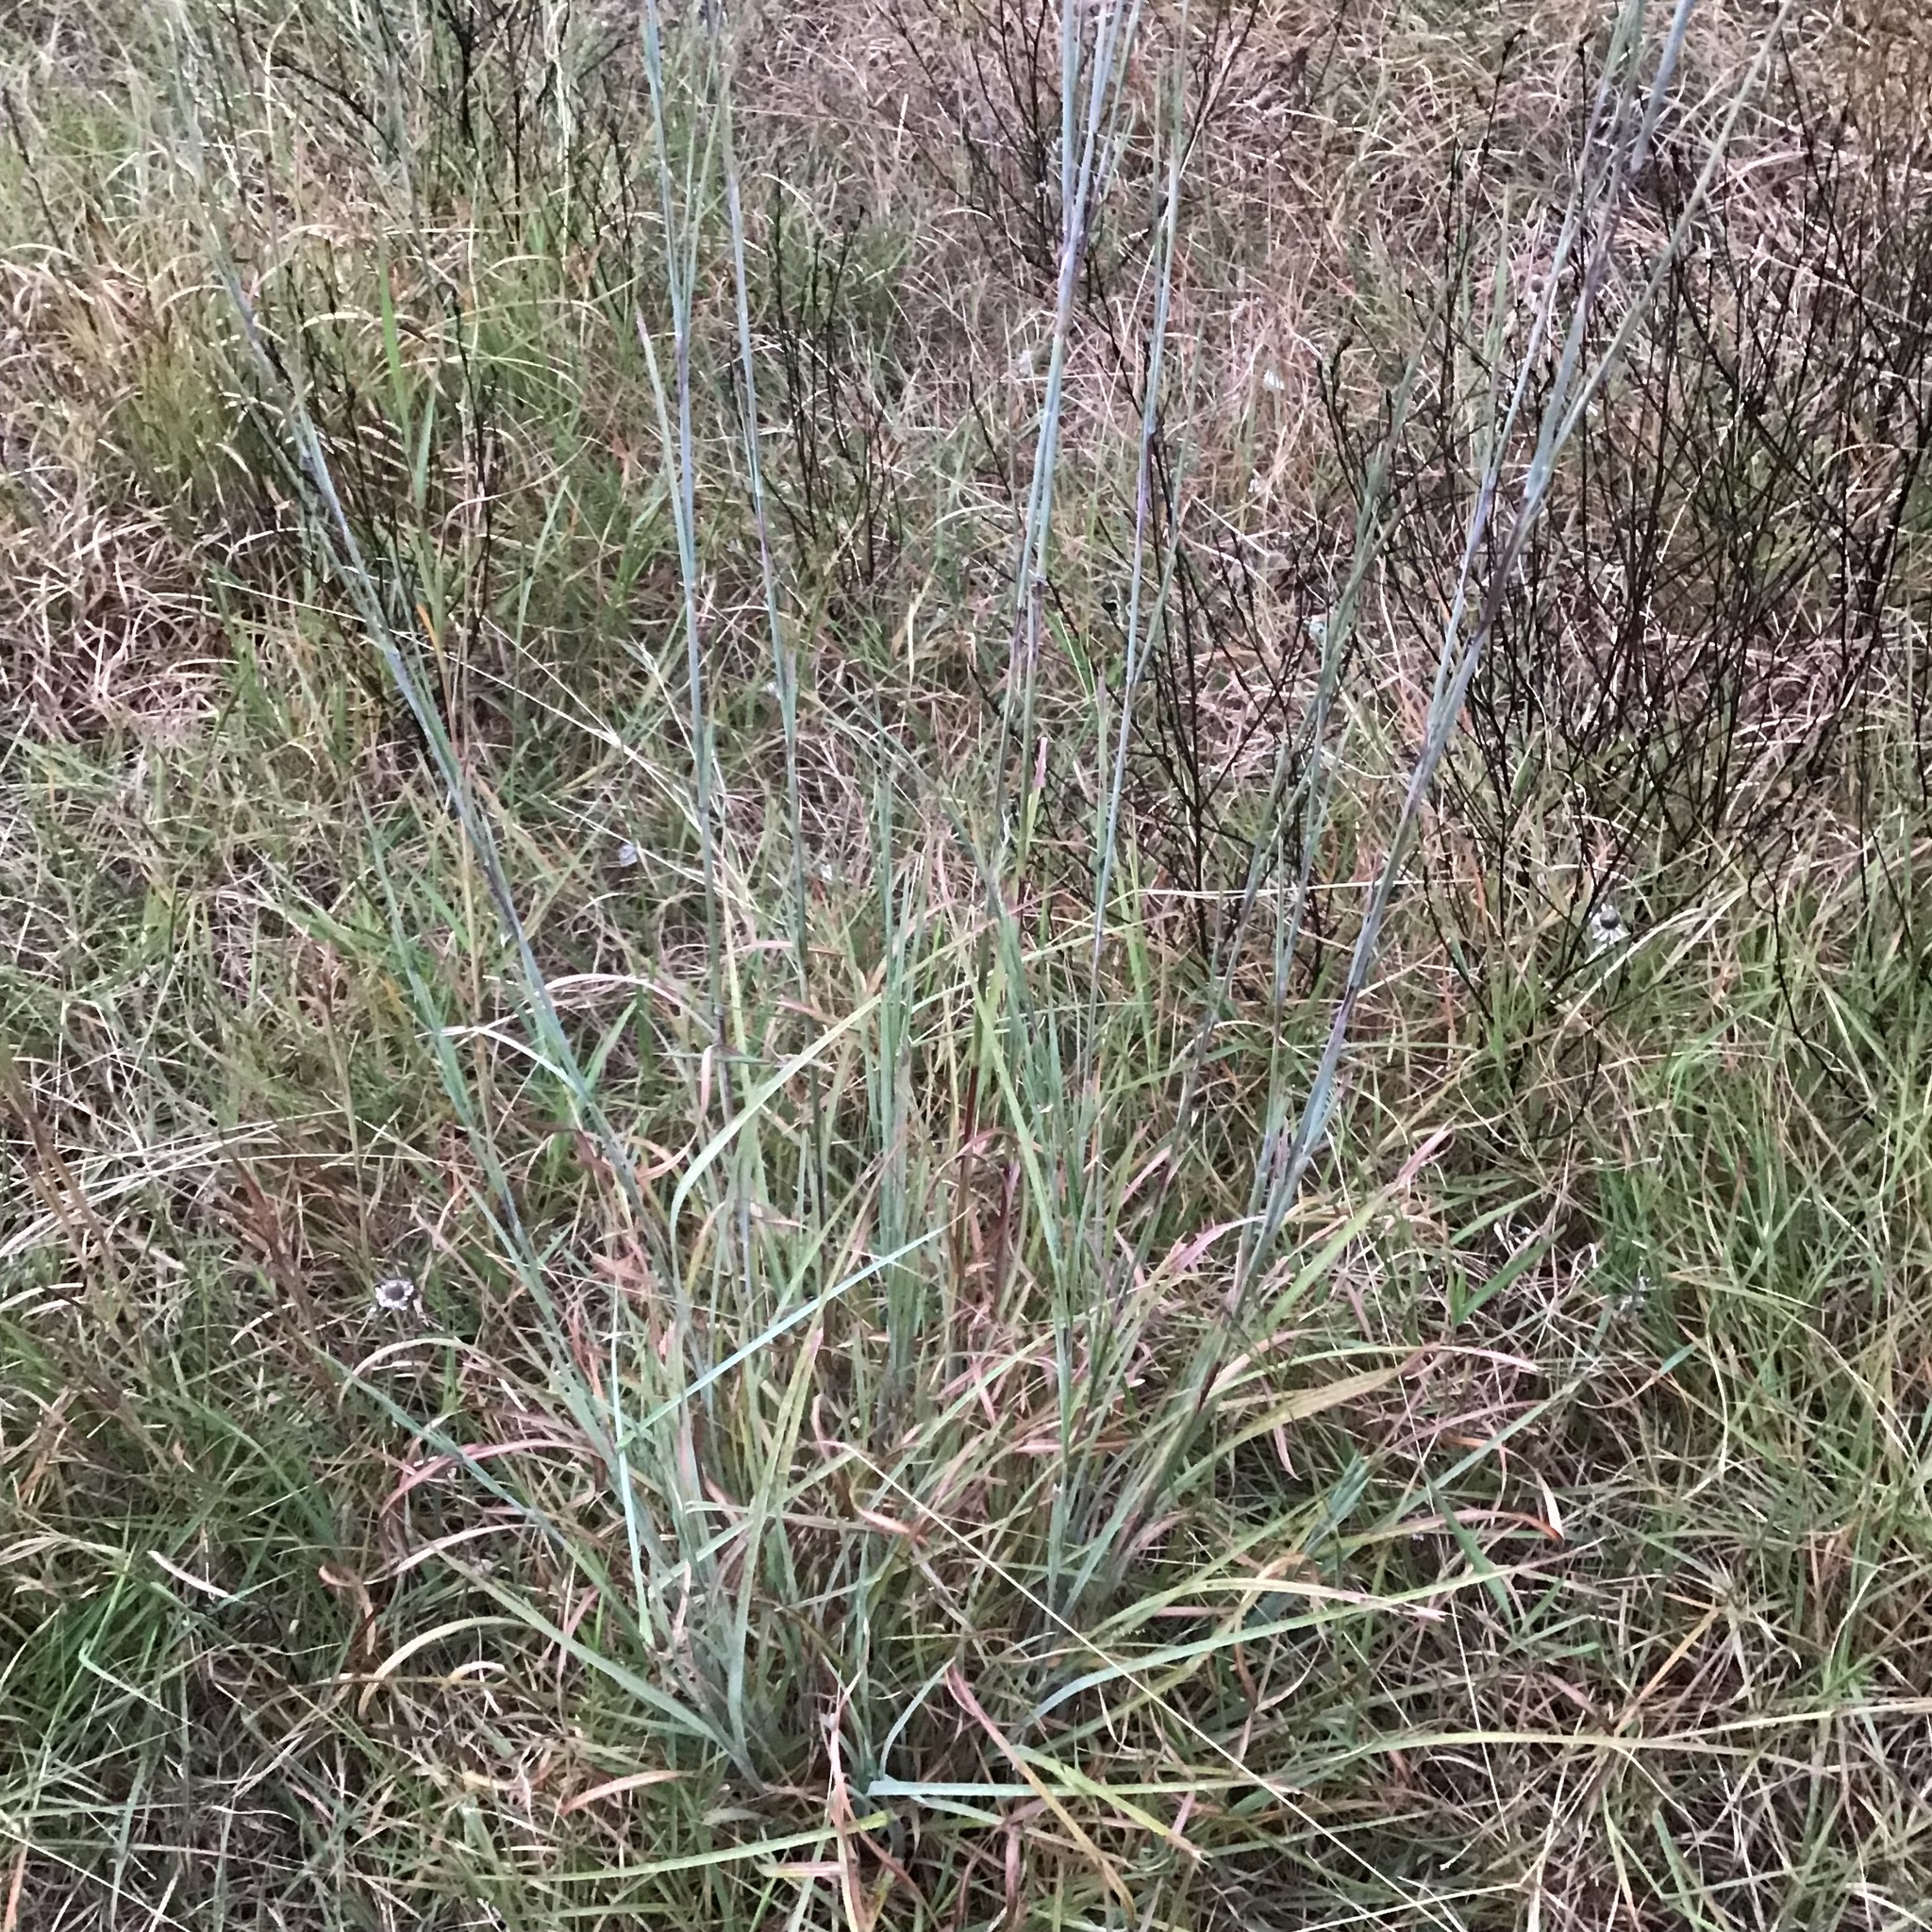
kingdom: Plantae
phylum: Tracheophyta
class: Liliopsida
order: Poales
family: Poaceae
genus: Schizachyrium
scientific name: Schizachyrium scoparium
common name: Little bluestem
